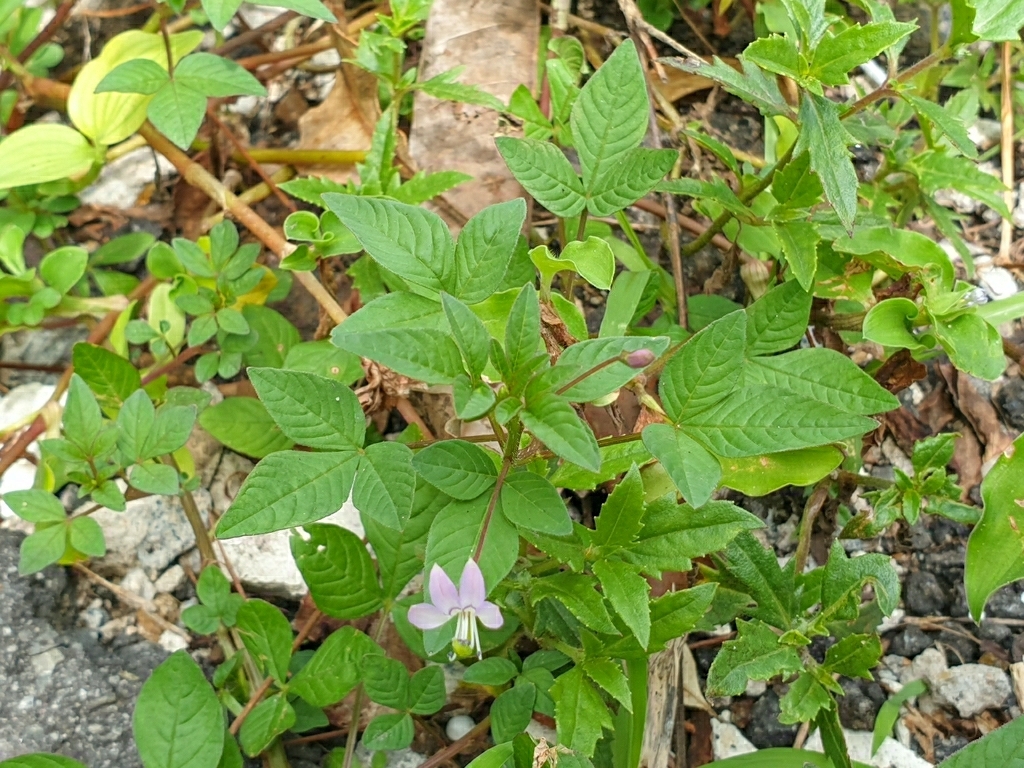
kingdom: Plantae
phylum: Tracheophyta
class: Magnoliopsida
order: Brassicales
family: Cleomaceae
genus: Sieruela
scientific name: Sieruela rutidosperma
